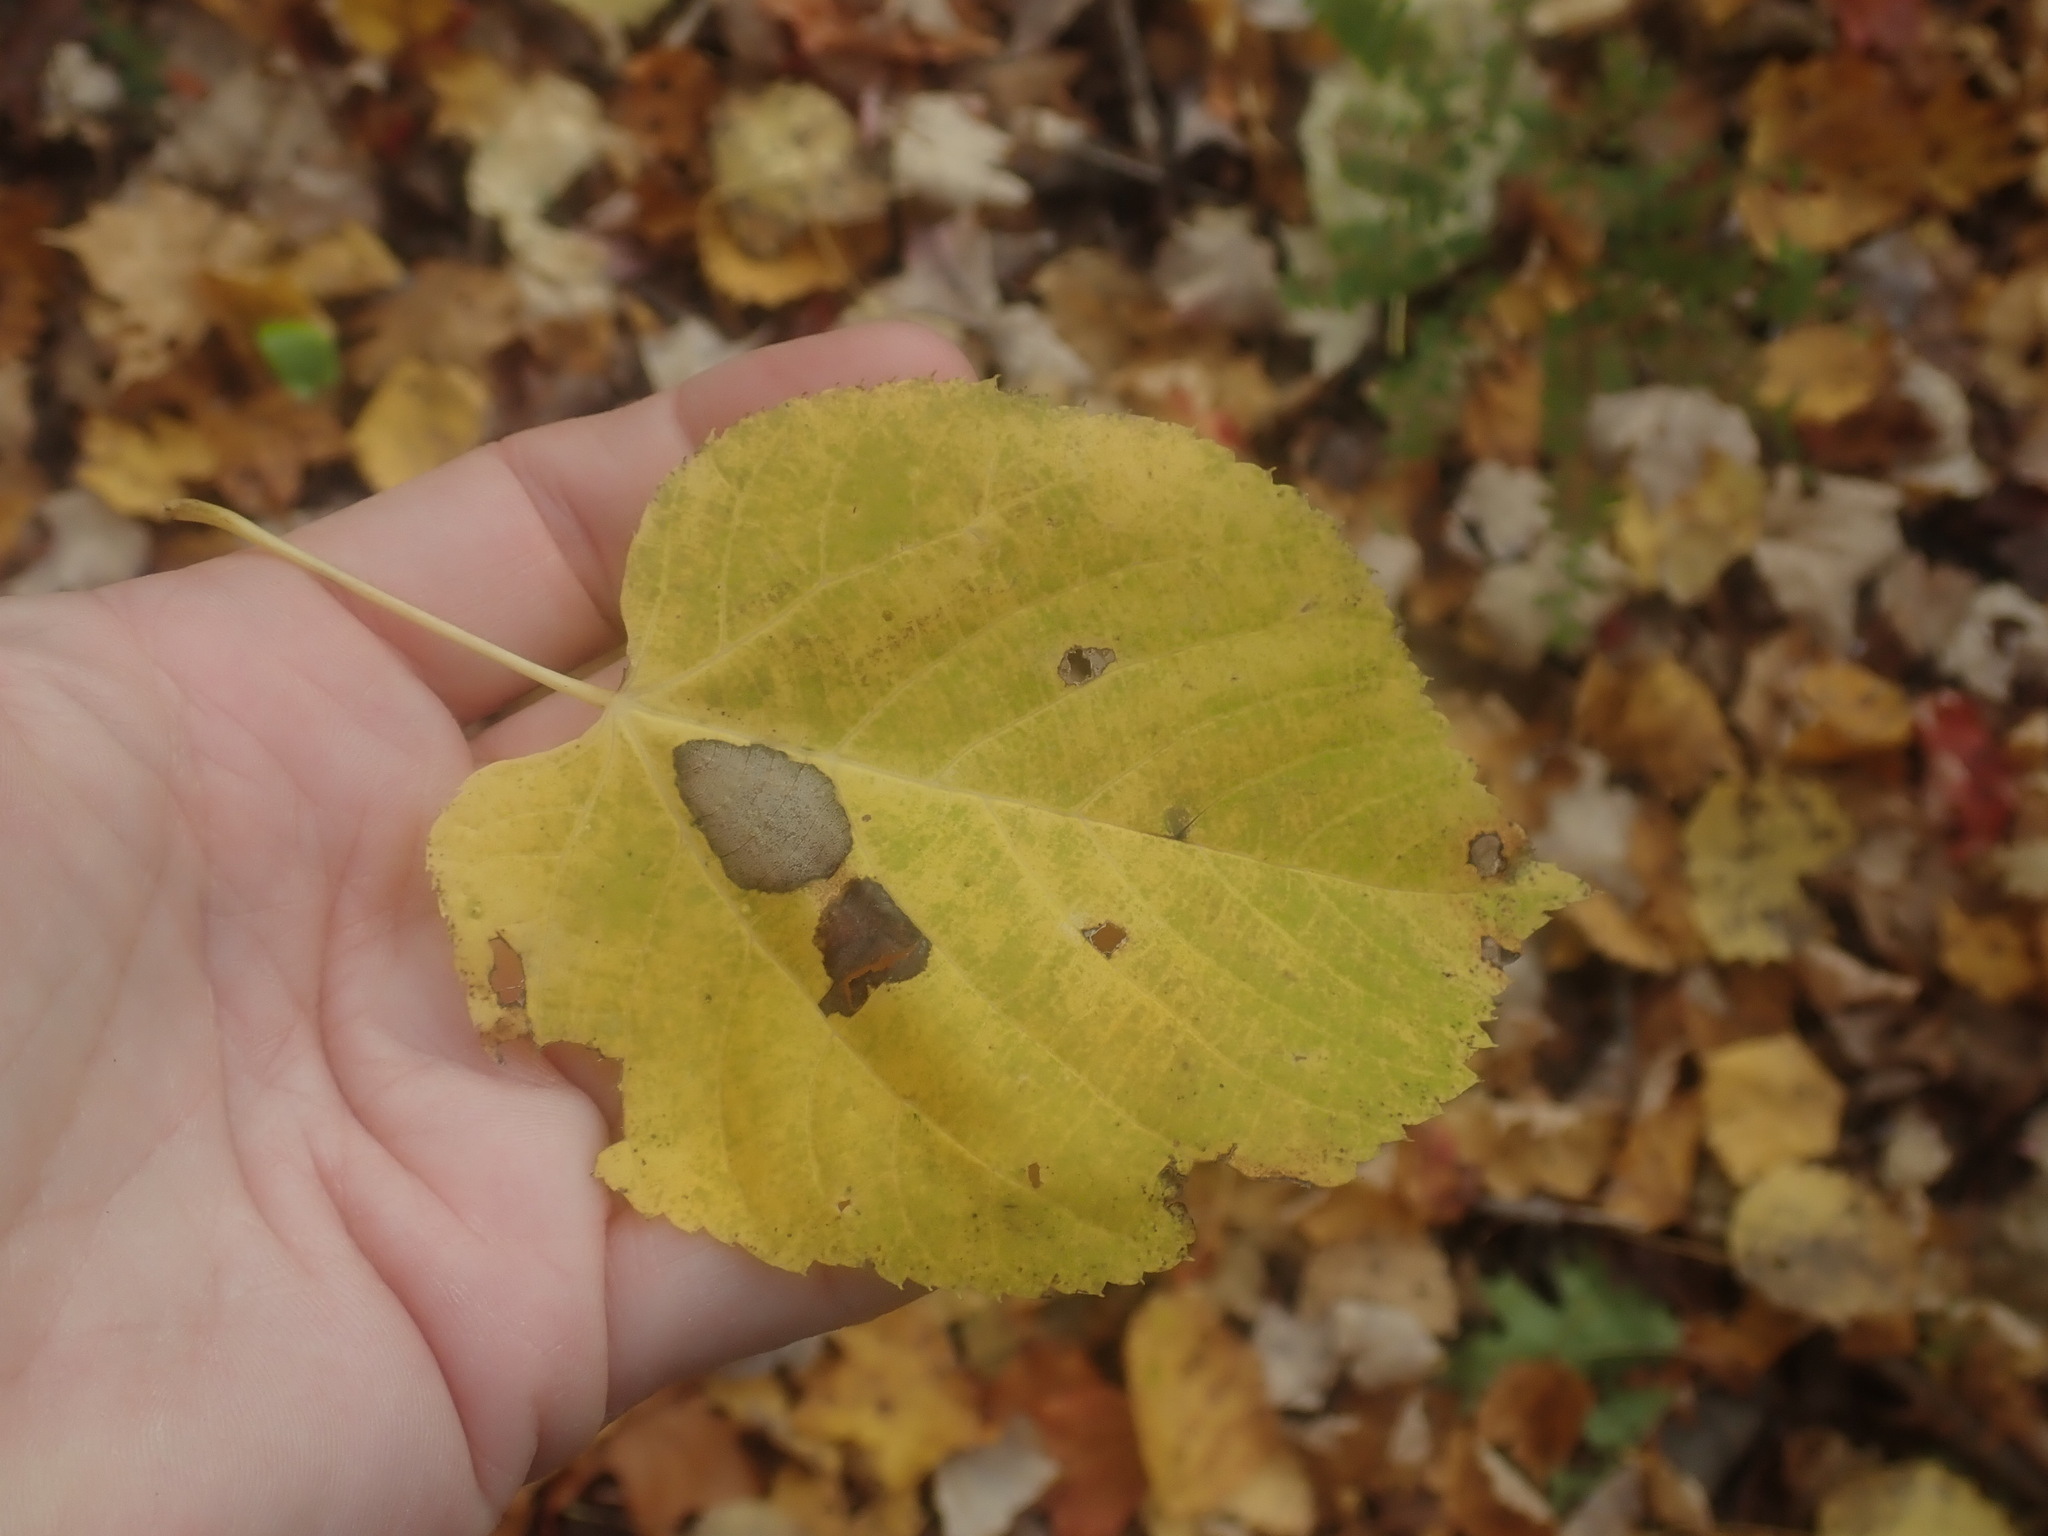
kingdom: Plantae
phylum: Tracheophyta
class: Magnoliopsida
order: Malvales
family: Malvaceae
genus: Tilia
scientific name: Tilia americana
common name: Basswood
